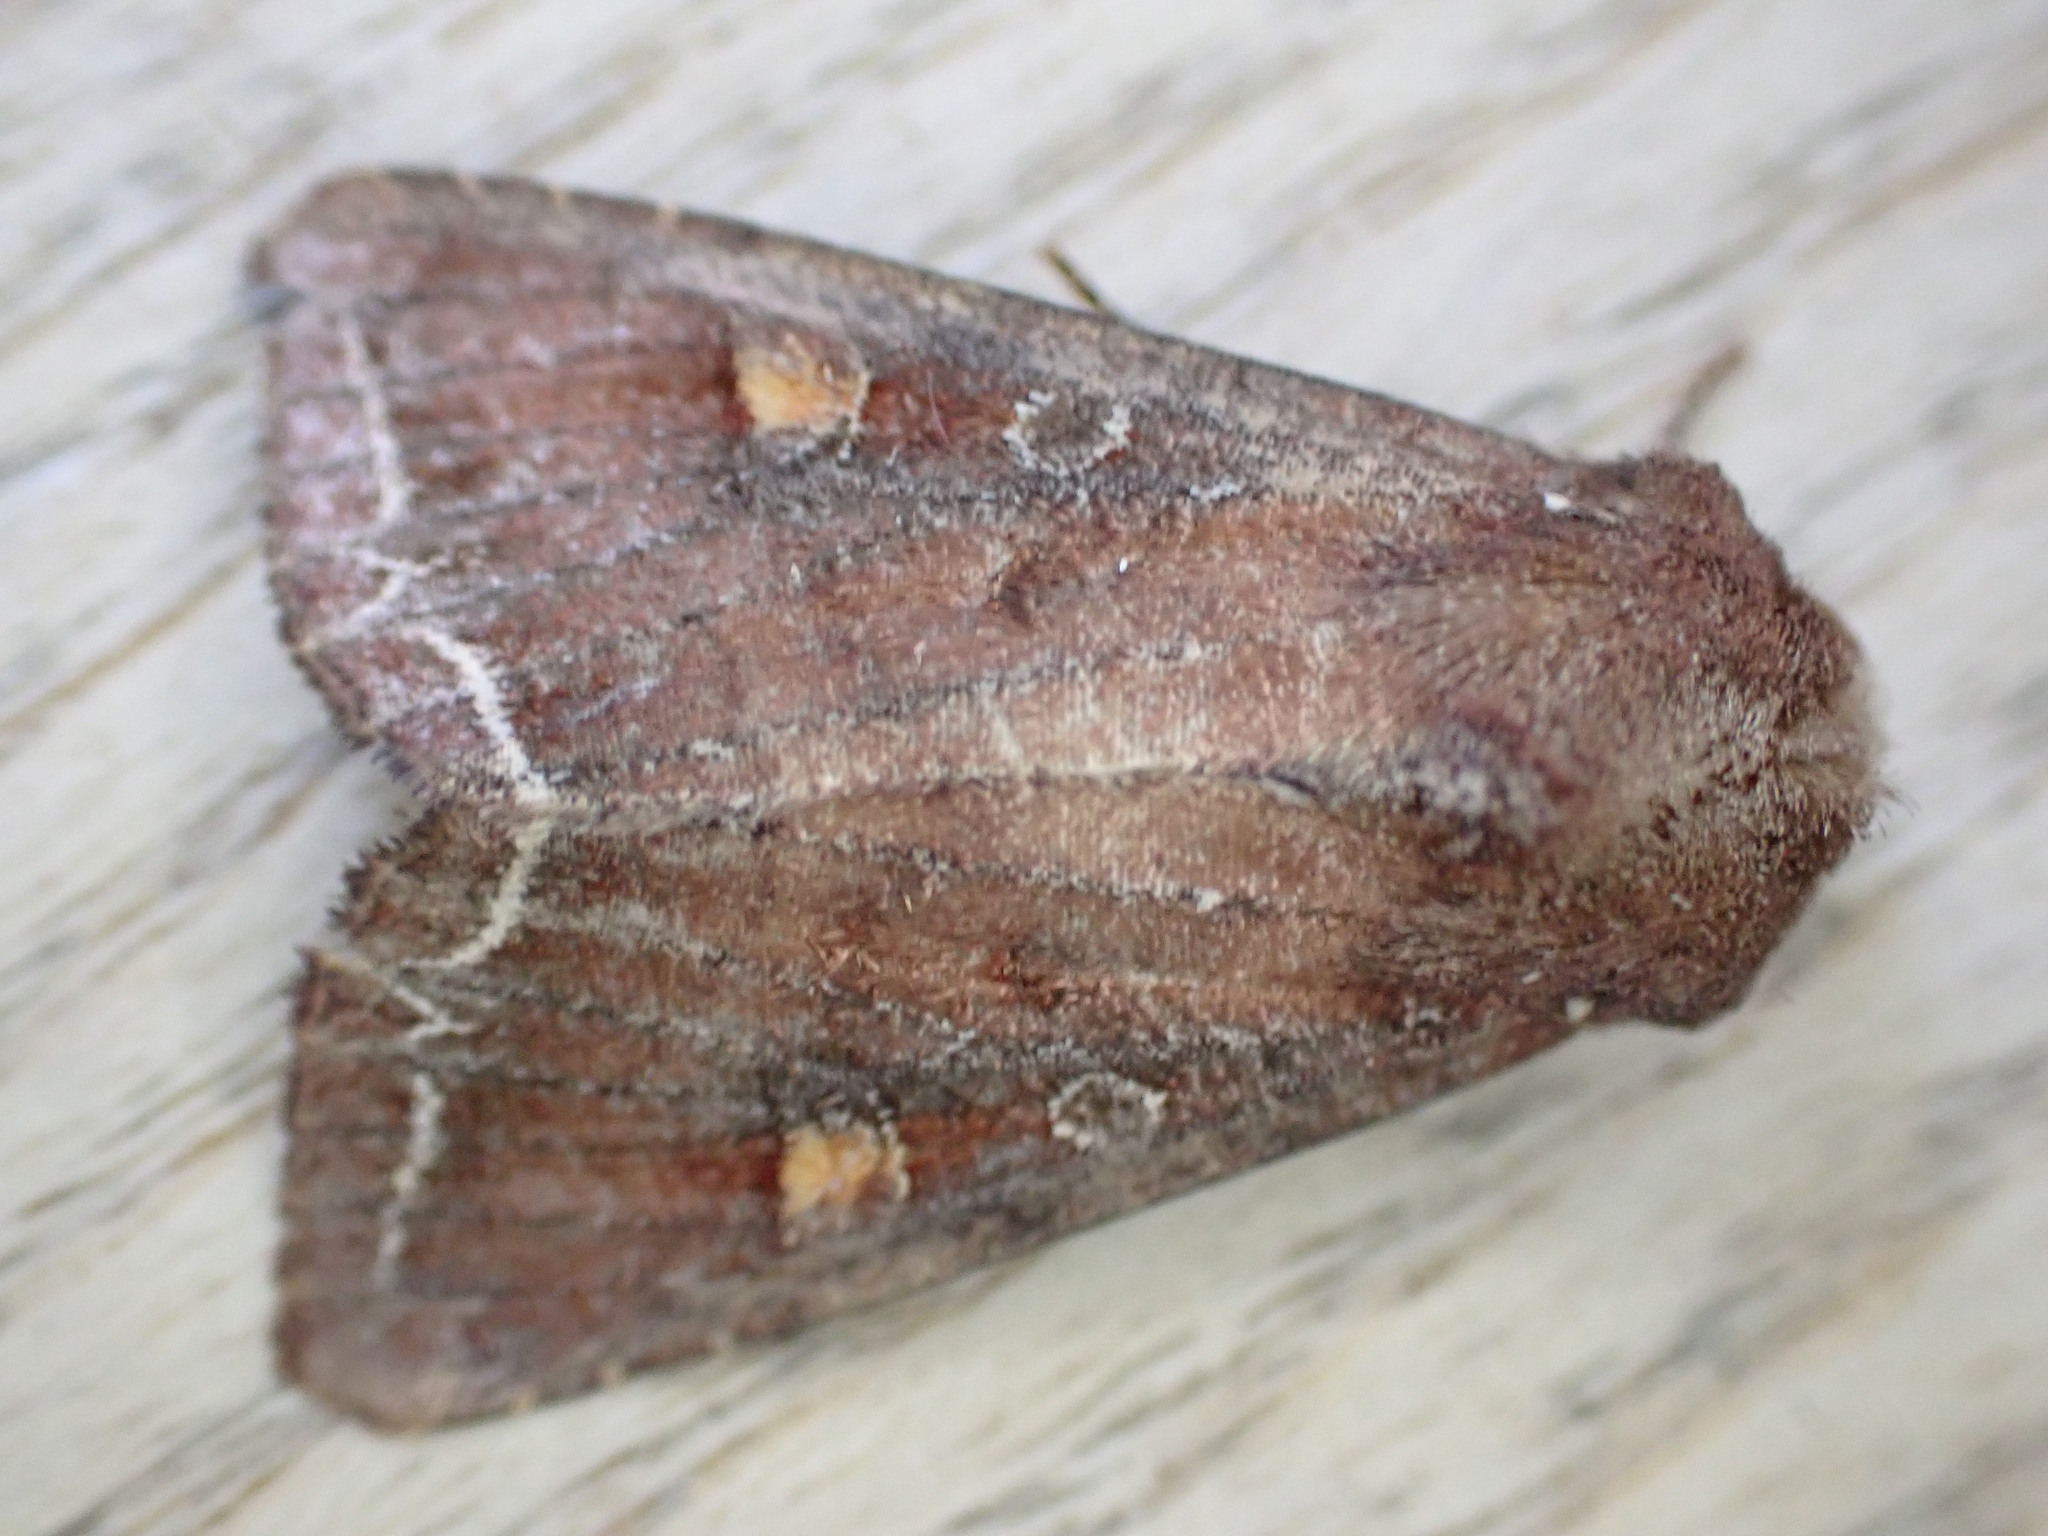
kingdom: Animalia
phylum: Arthropoda
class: Insecta
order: Lepidoptera
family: Noctuidae
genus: Lacanobia
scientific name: Lacanobia oleracea
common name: Bright-line brown-eye
